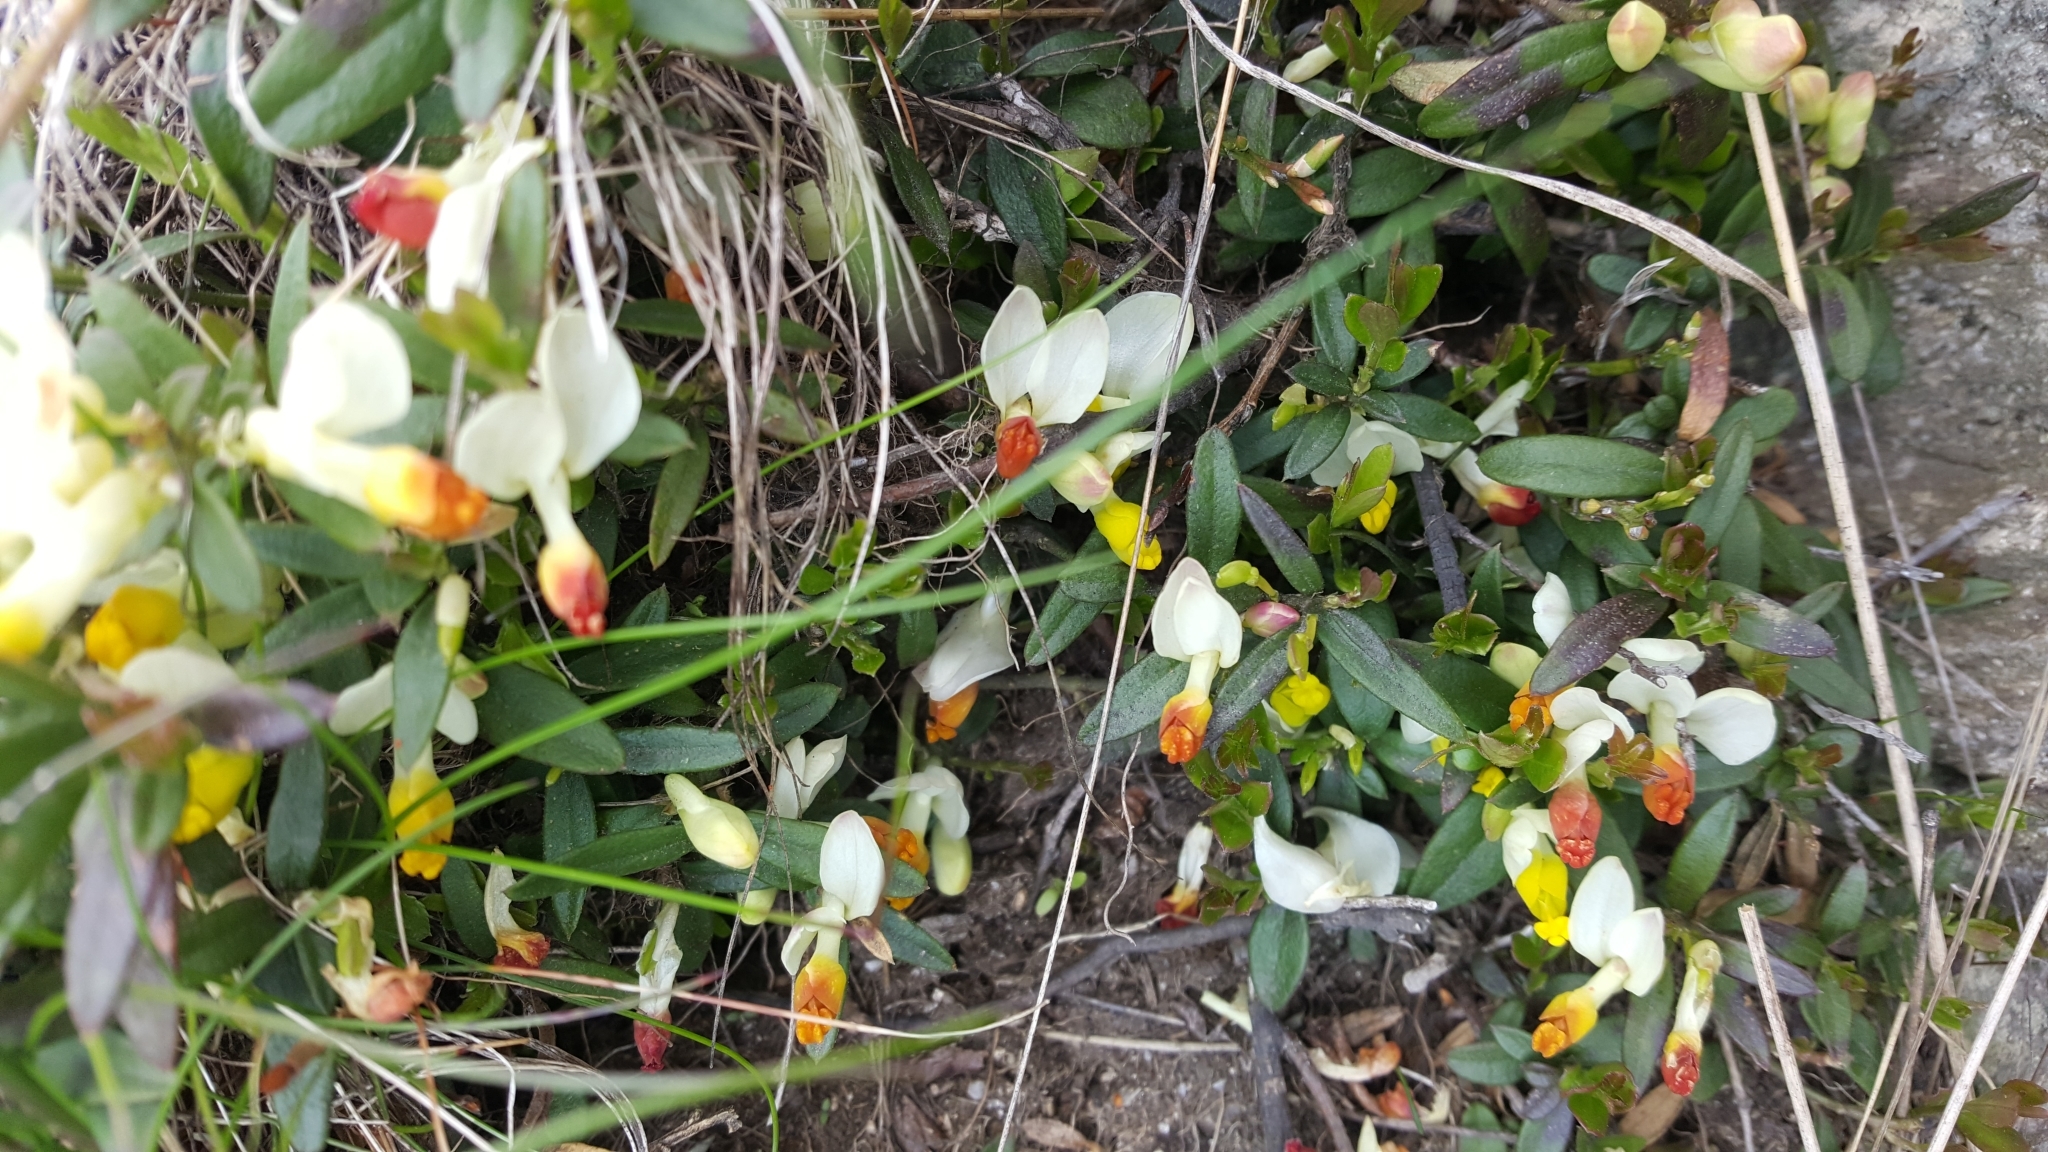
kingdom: Plantae
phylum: Tracheophyta
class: Magnoliopsida
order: Fabales
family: Polygalaceae
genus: Polygaloides
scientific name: Polygaloides chamaebuxus
